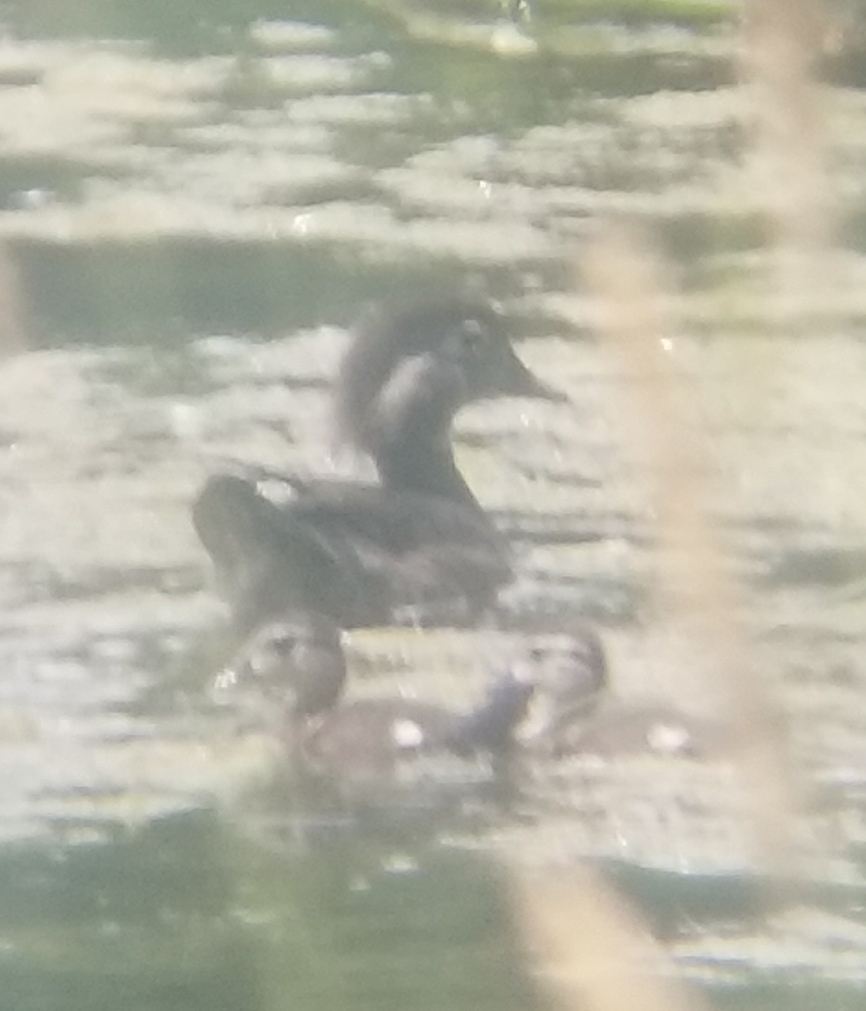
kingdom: Animalia
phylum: Chordata
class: Aves
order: Anseriformes
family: Anatidae
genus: Aix
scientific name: Aix sponsa
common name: Wood duck
